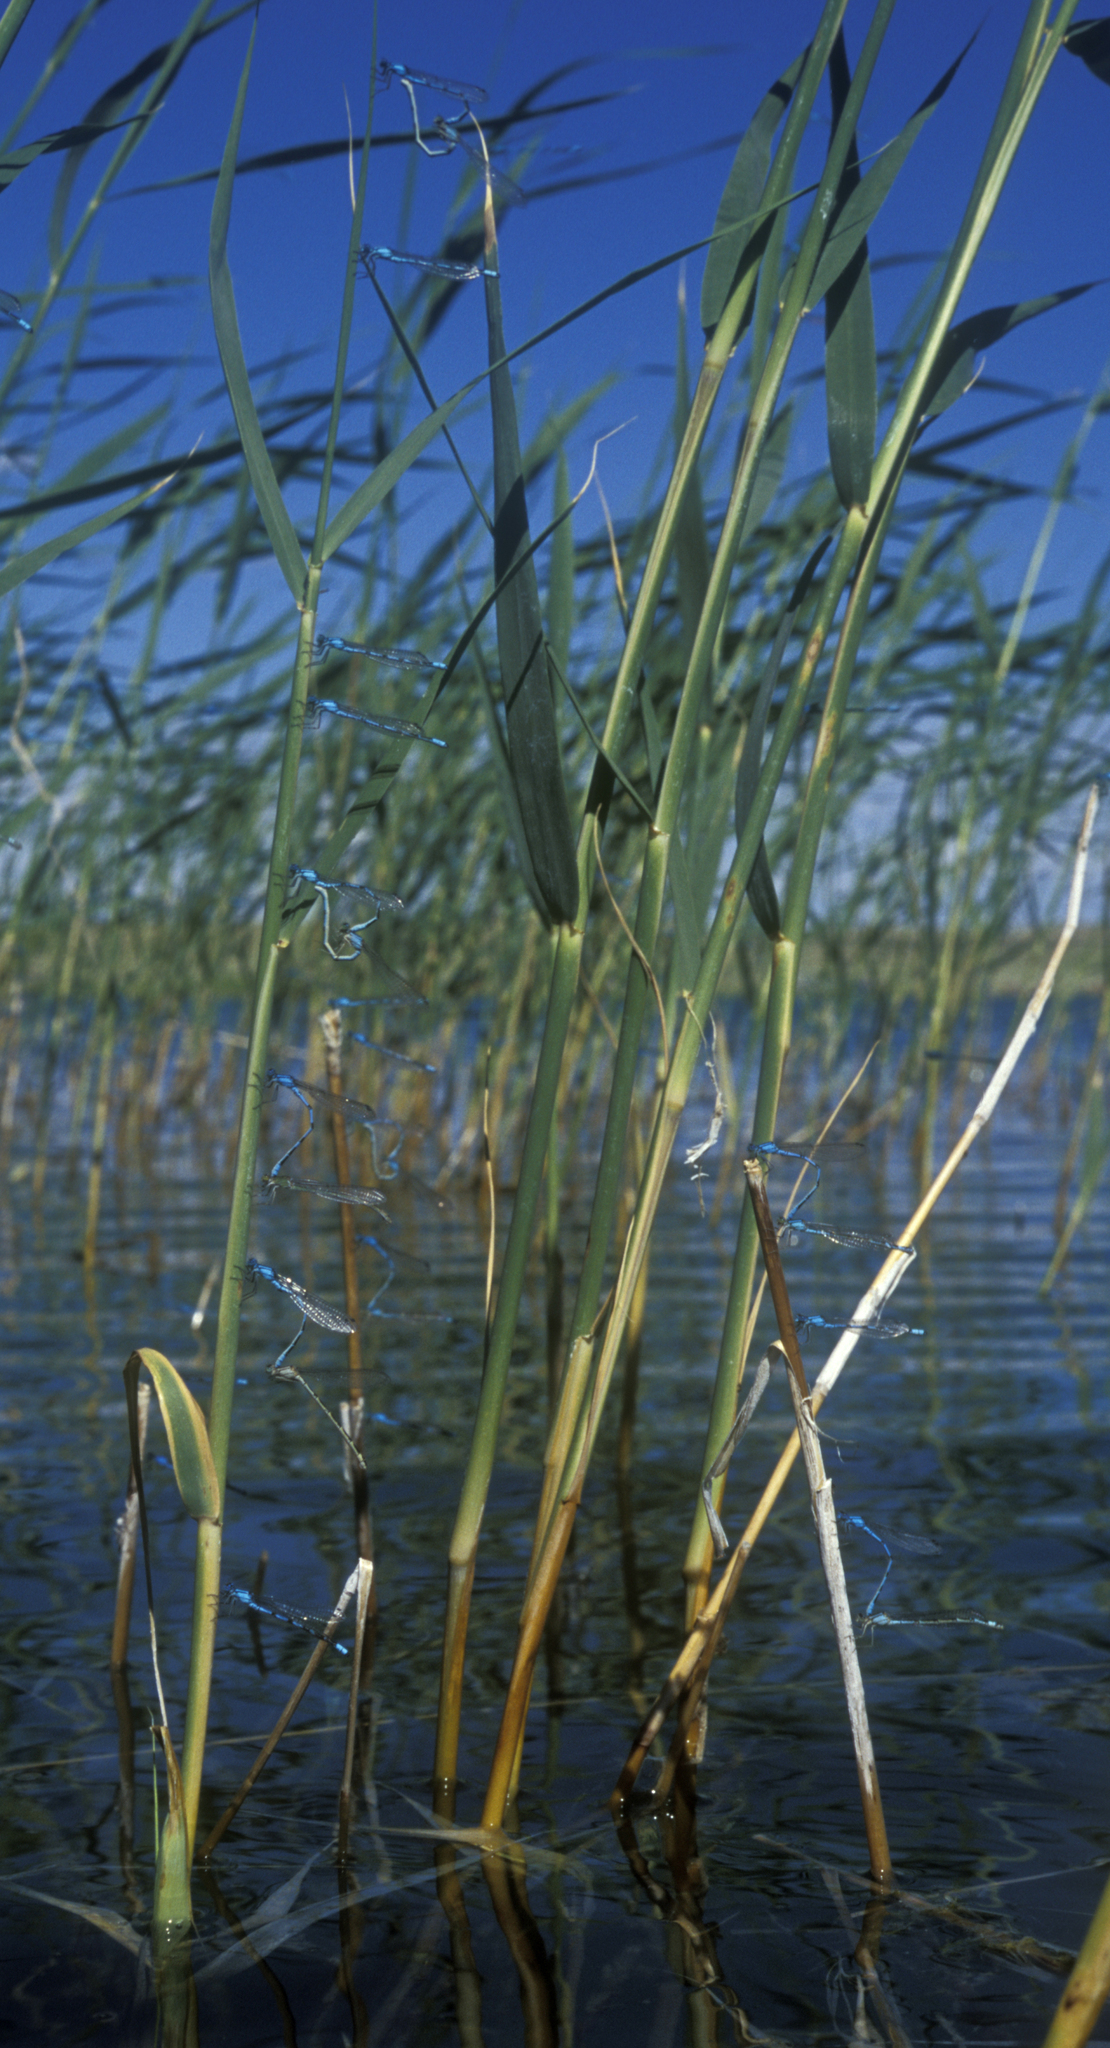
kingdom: Plantae
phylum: Tracheophyta
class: Liliopsida
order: Poales
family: Poaceae
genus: Phragmites
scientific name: Phragmites australis
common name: Common reed
